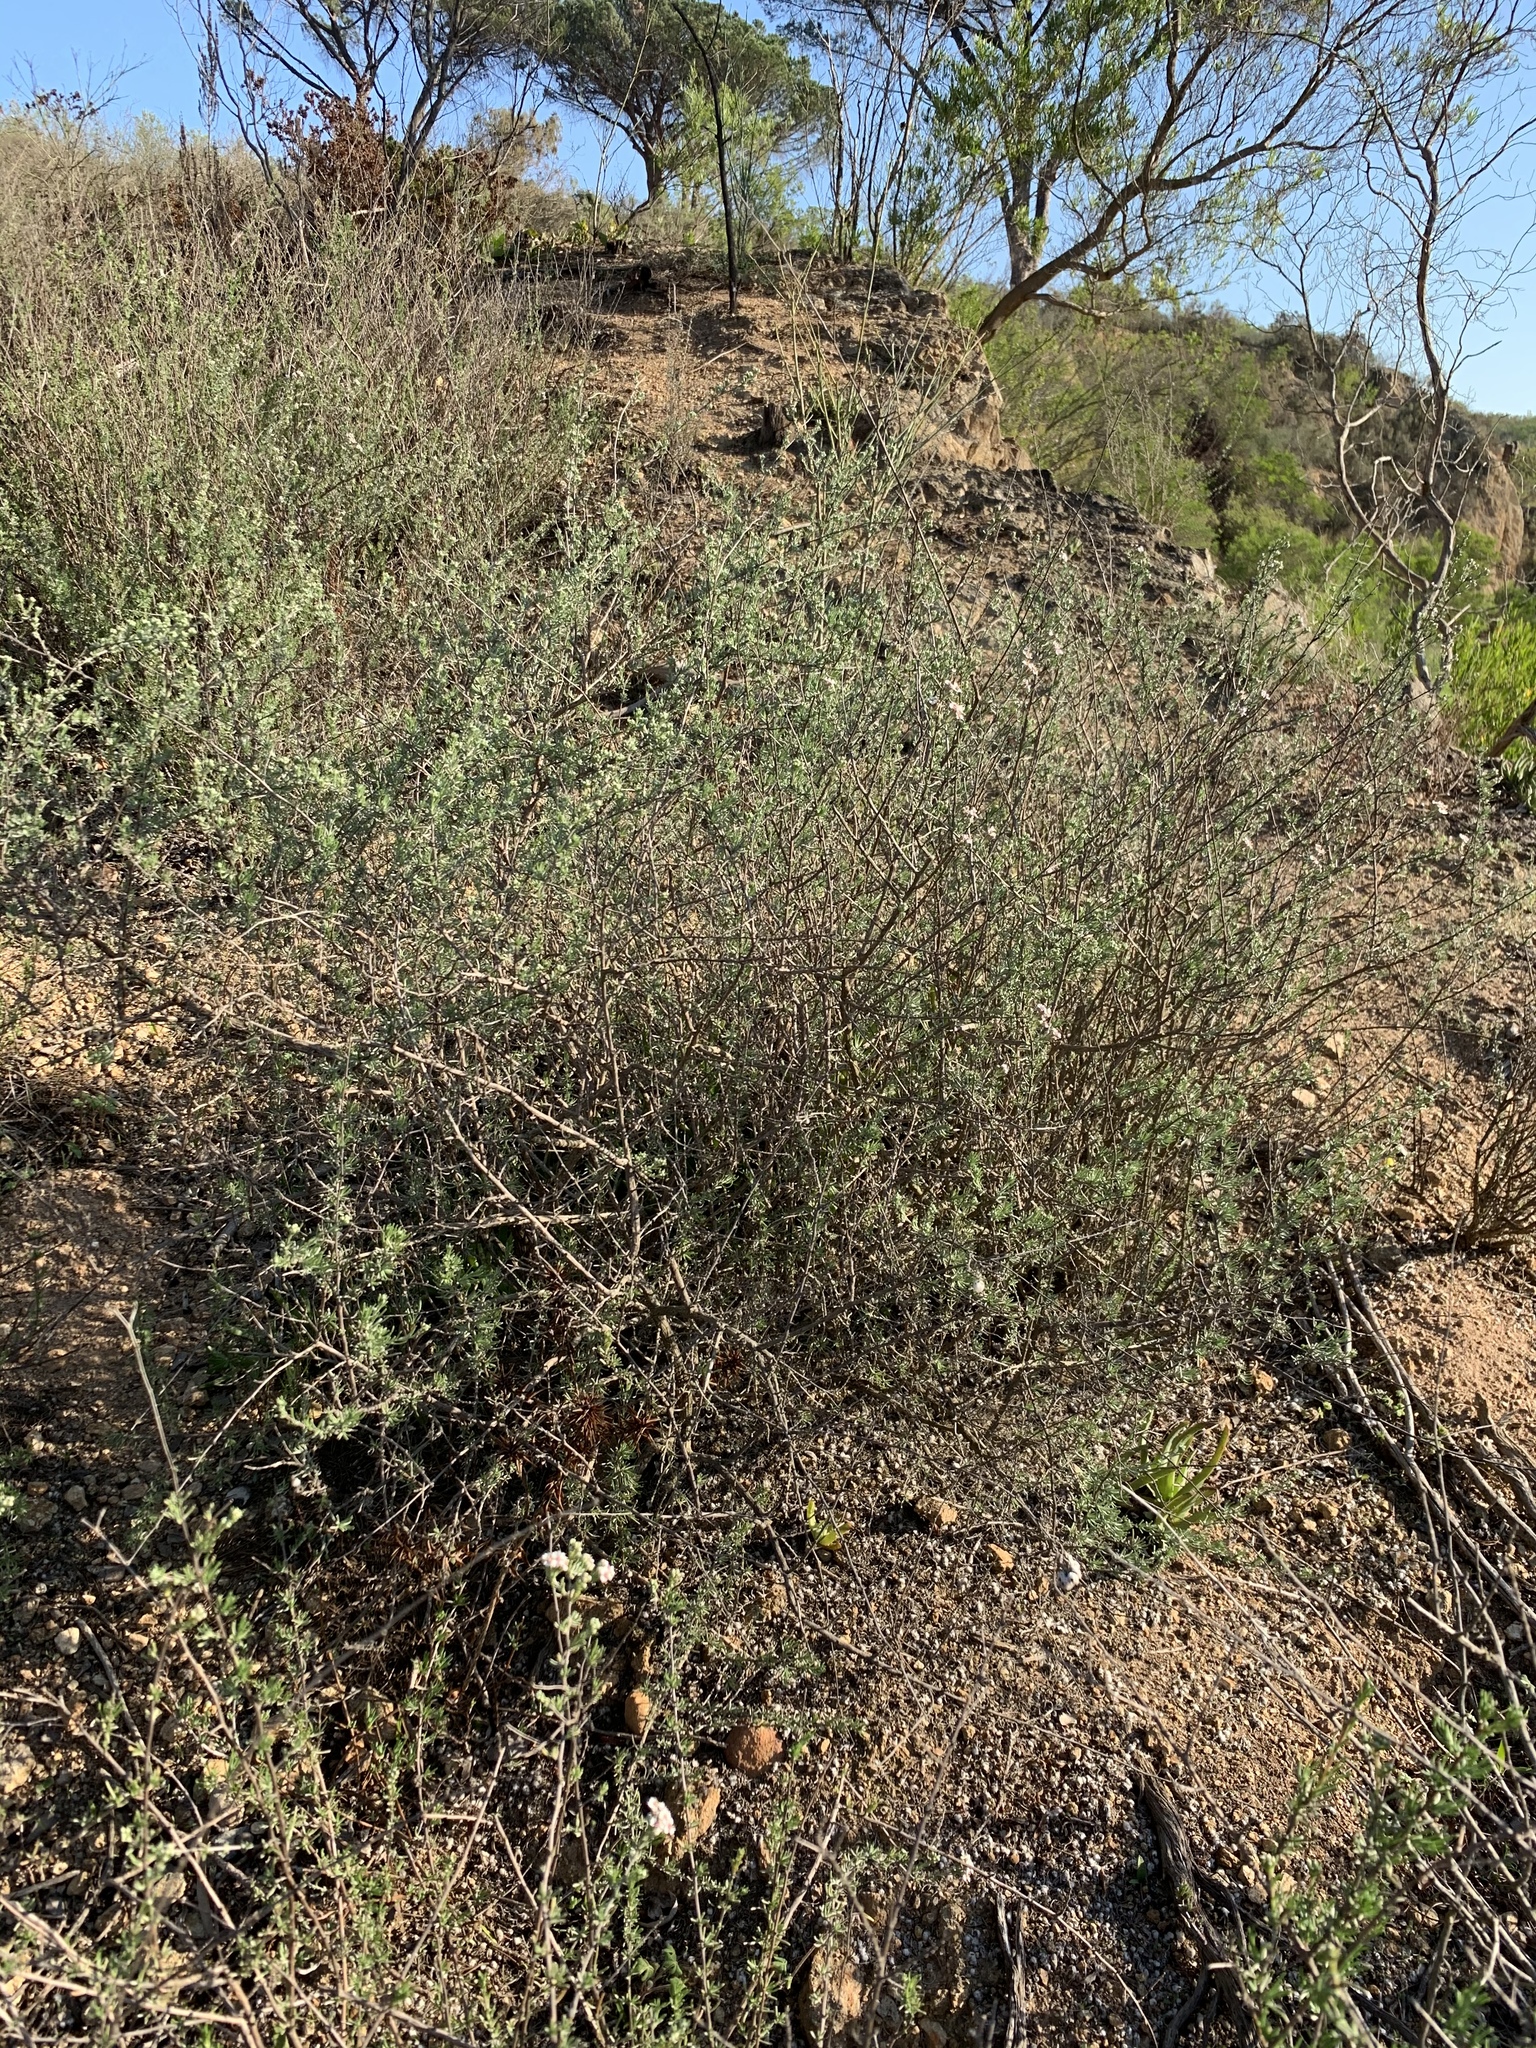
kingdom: Plantae
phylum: Tracheophyta
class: Magnoliopsida
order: Asterales
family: Asteraceae
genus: Eriocephalus
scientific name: Eriocephalus africanus
